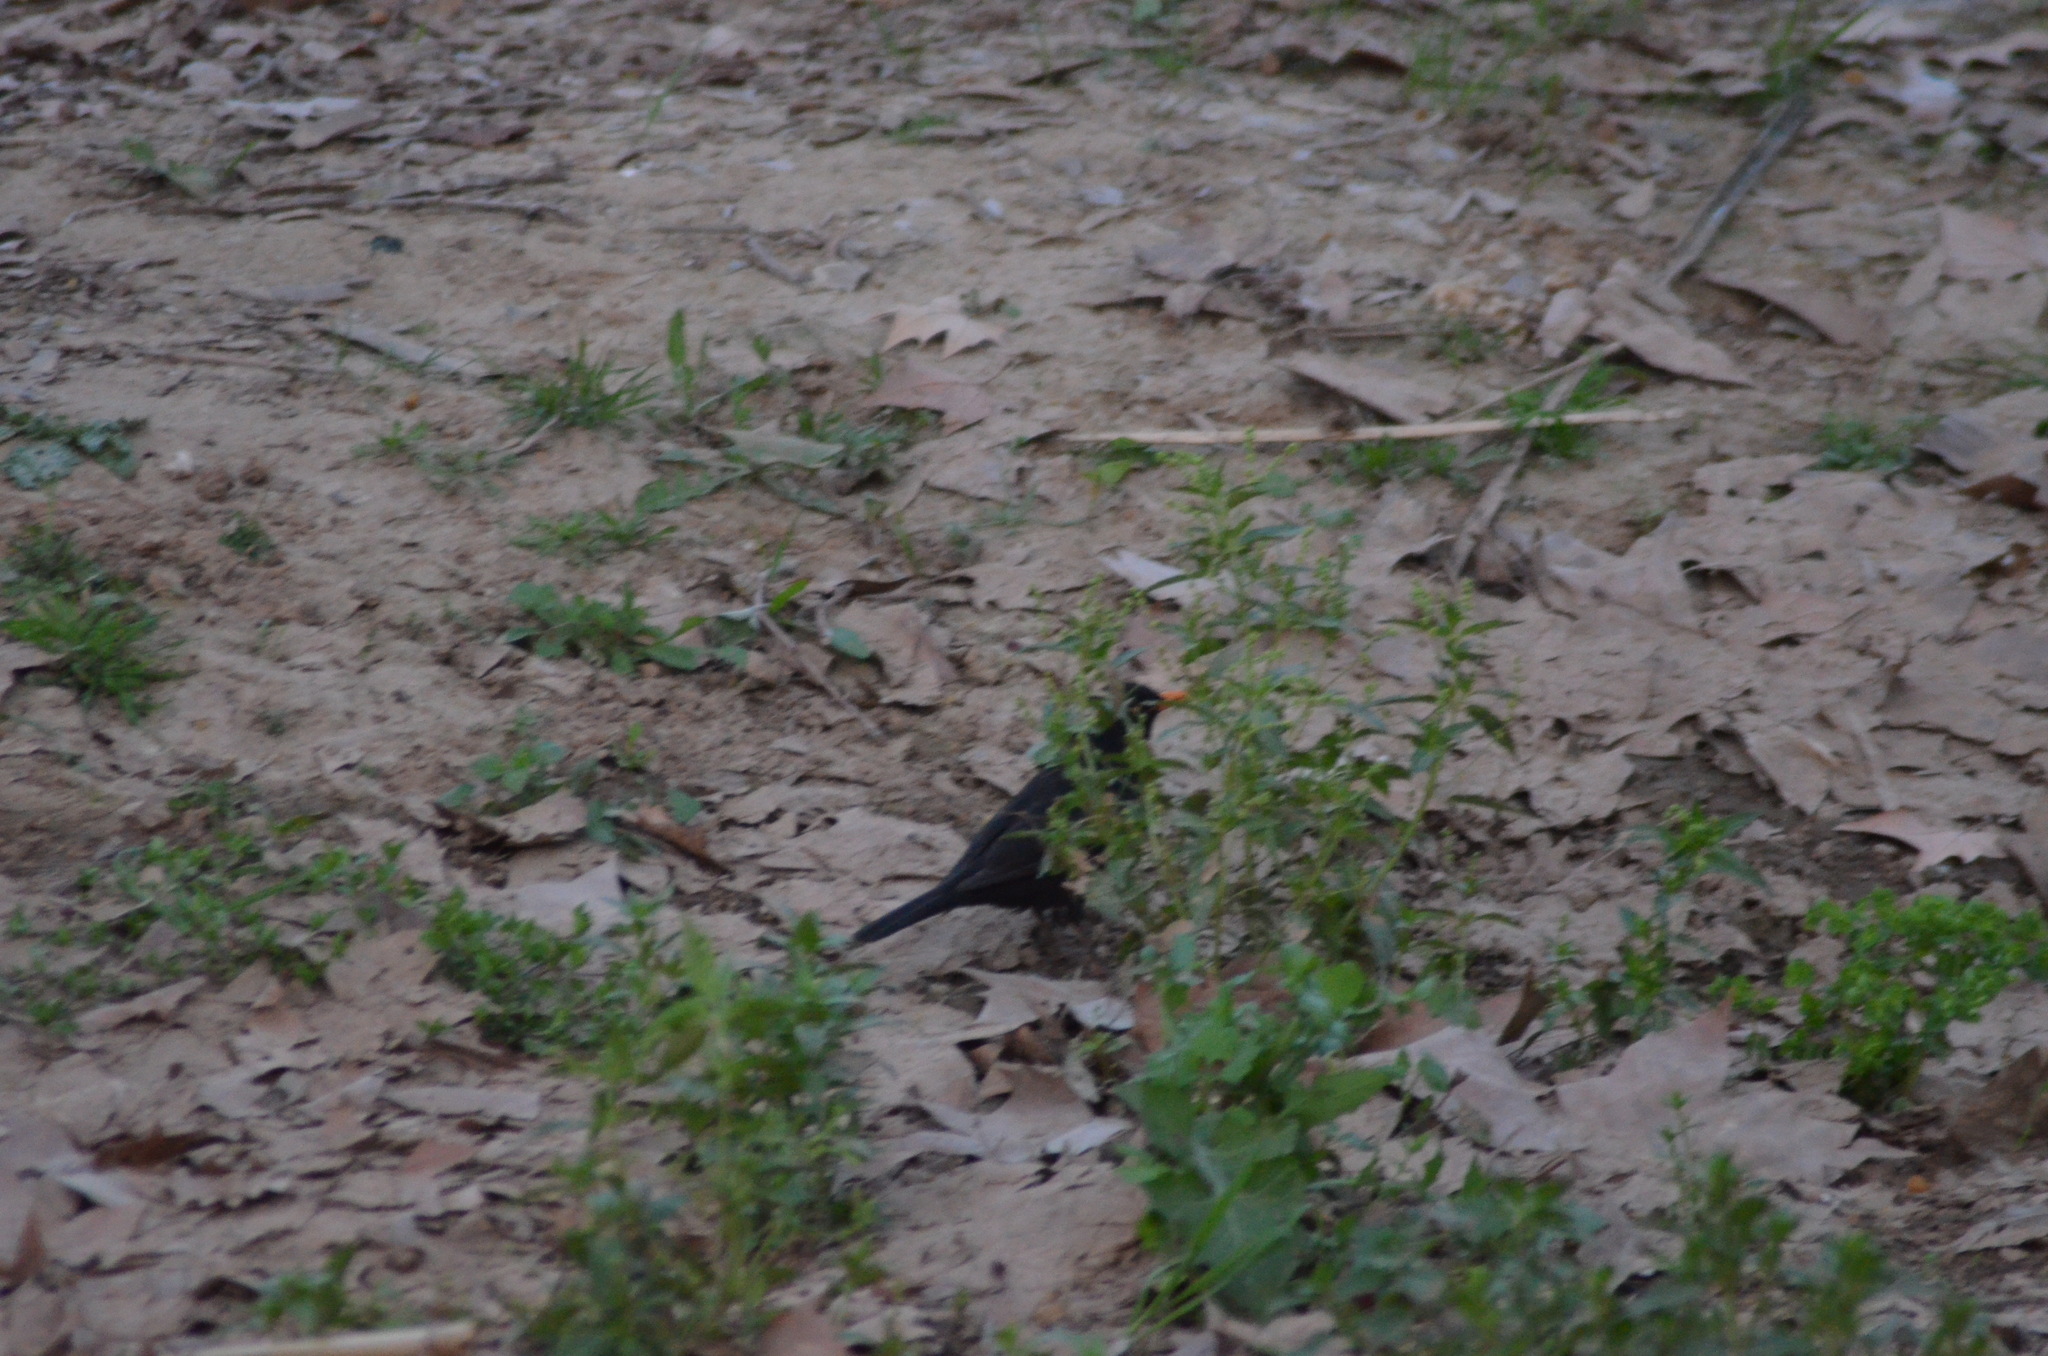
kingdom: Animalia
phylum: Chordata
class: Aves
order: Passeriformes
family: Turdidae
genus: Turdus
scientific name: Turdus merula
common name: Common blackbird
